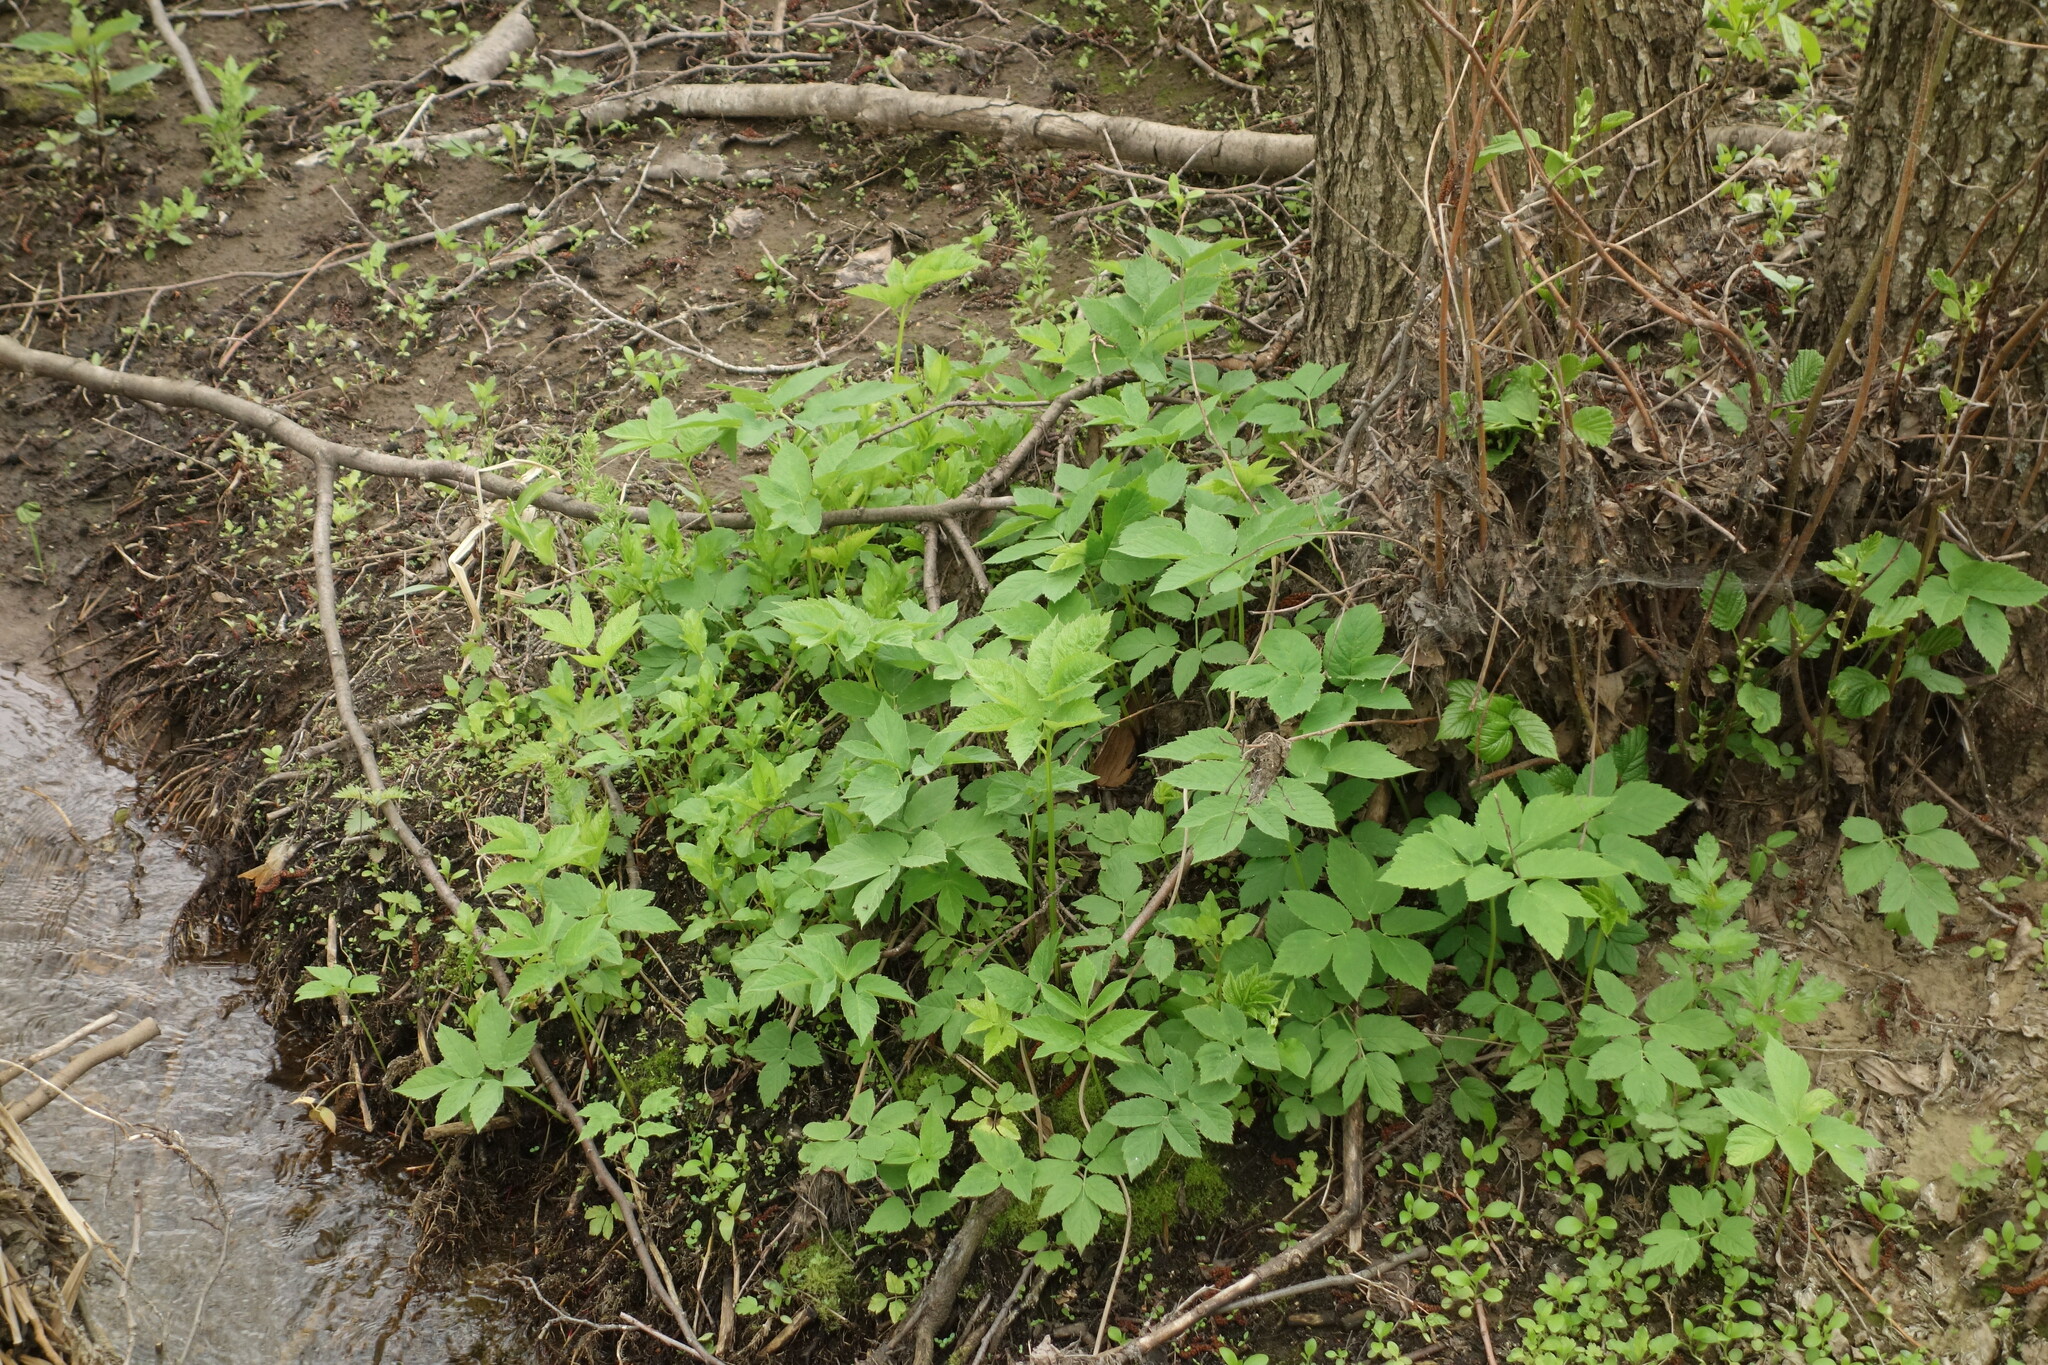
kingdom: Plantae
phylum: Tracheophyta
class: Magnoliopsida
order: Apiales
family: Apiaceae
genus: Aegopodium
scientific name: Aegopodium podagraria
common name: Ground-elder
